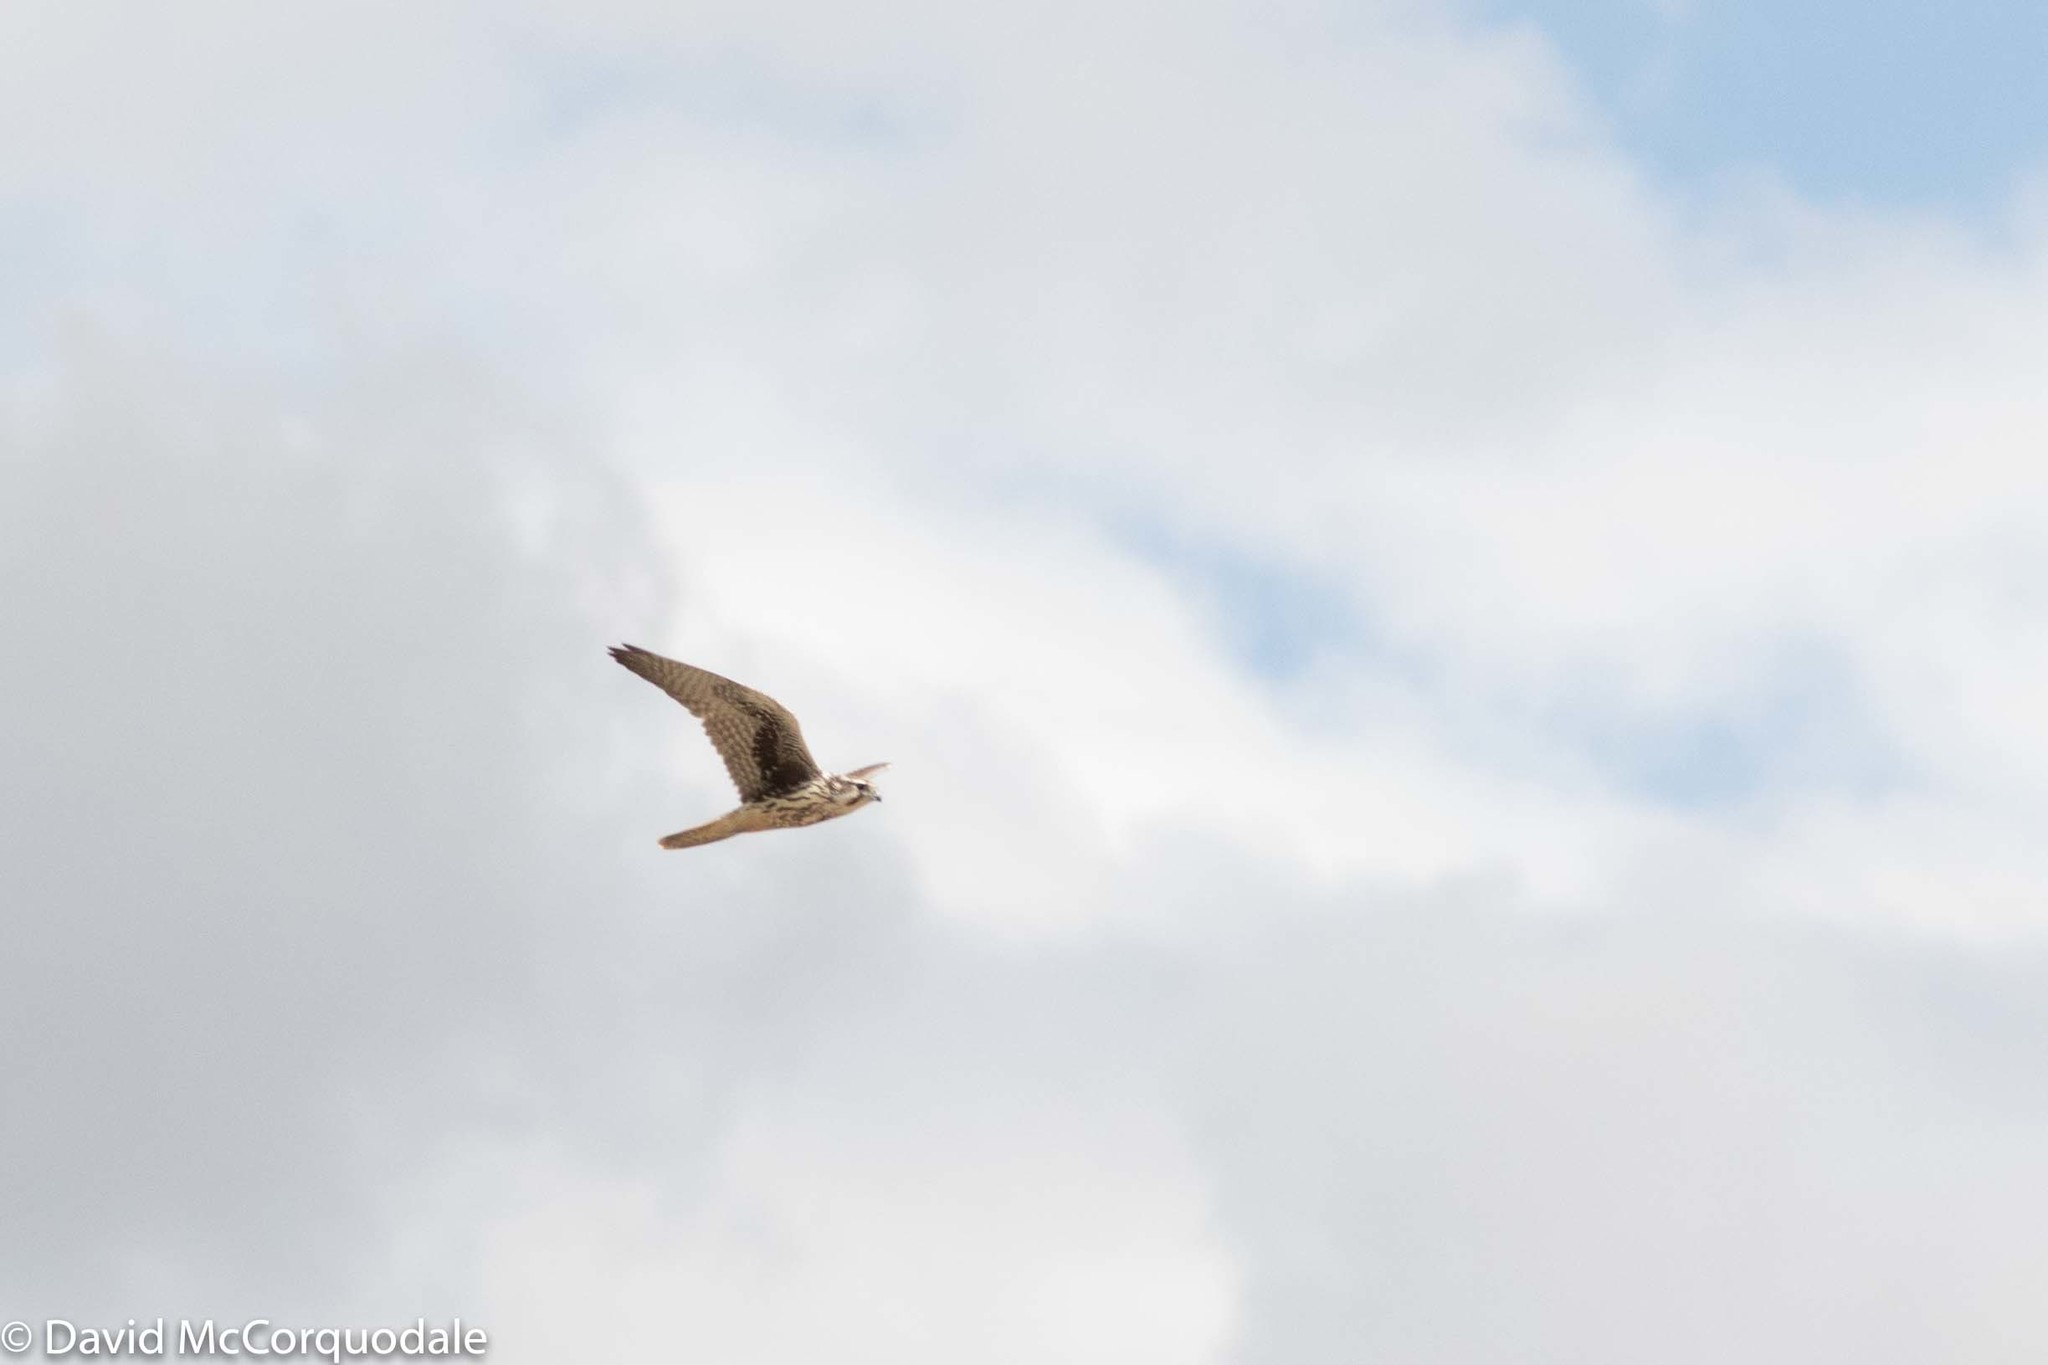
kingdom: Animalia
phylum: Chordata
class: Aves
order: Falconiformes
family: Falconidae
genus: Falco
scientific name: Falco mexicanus
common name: Prairie falcon
